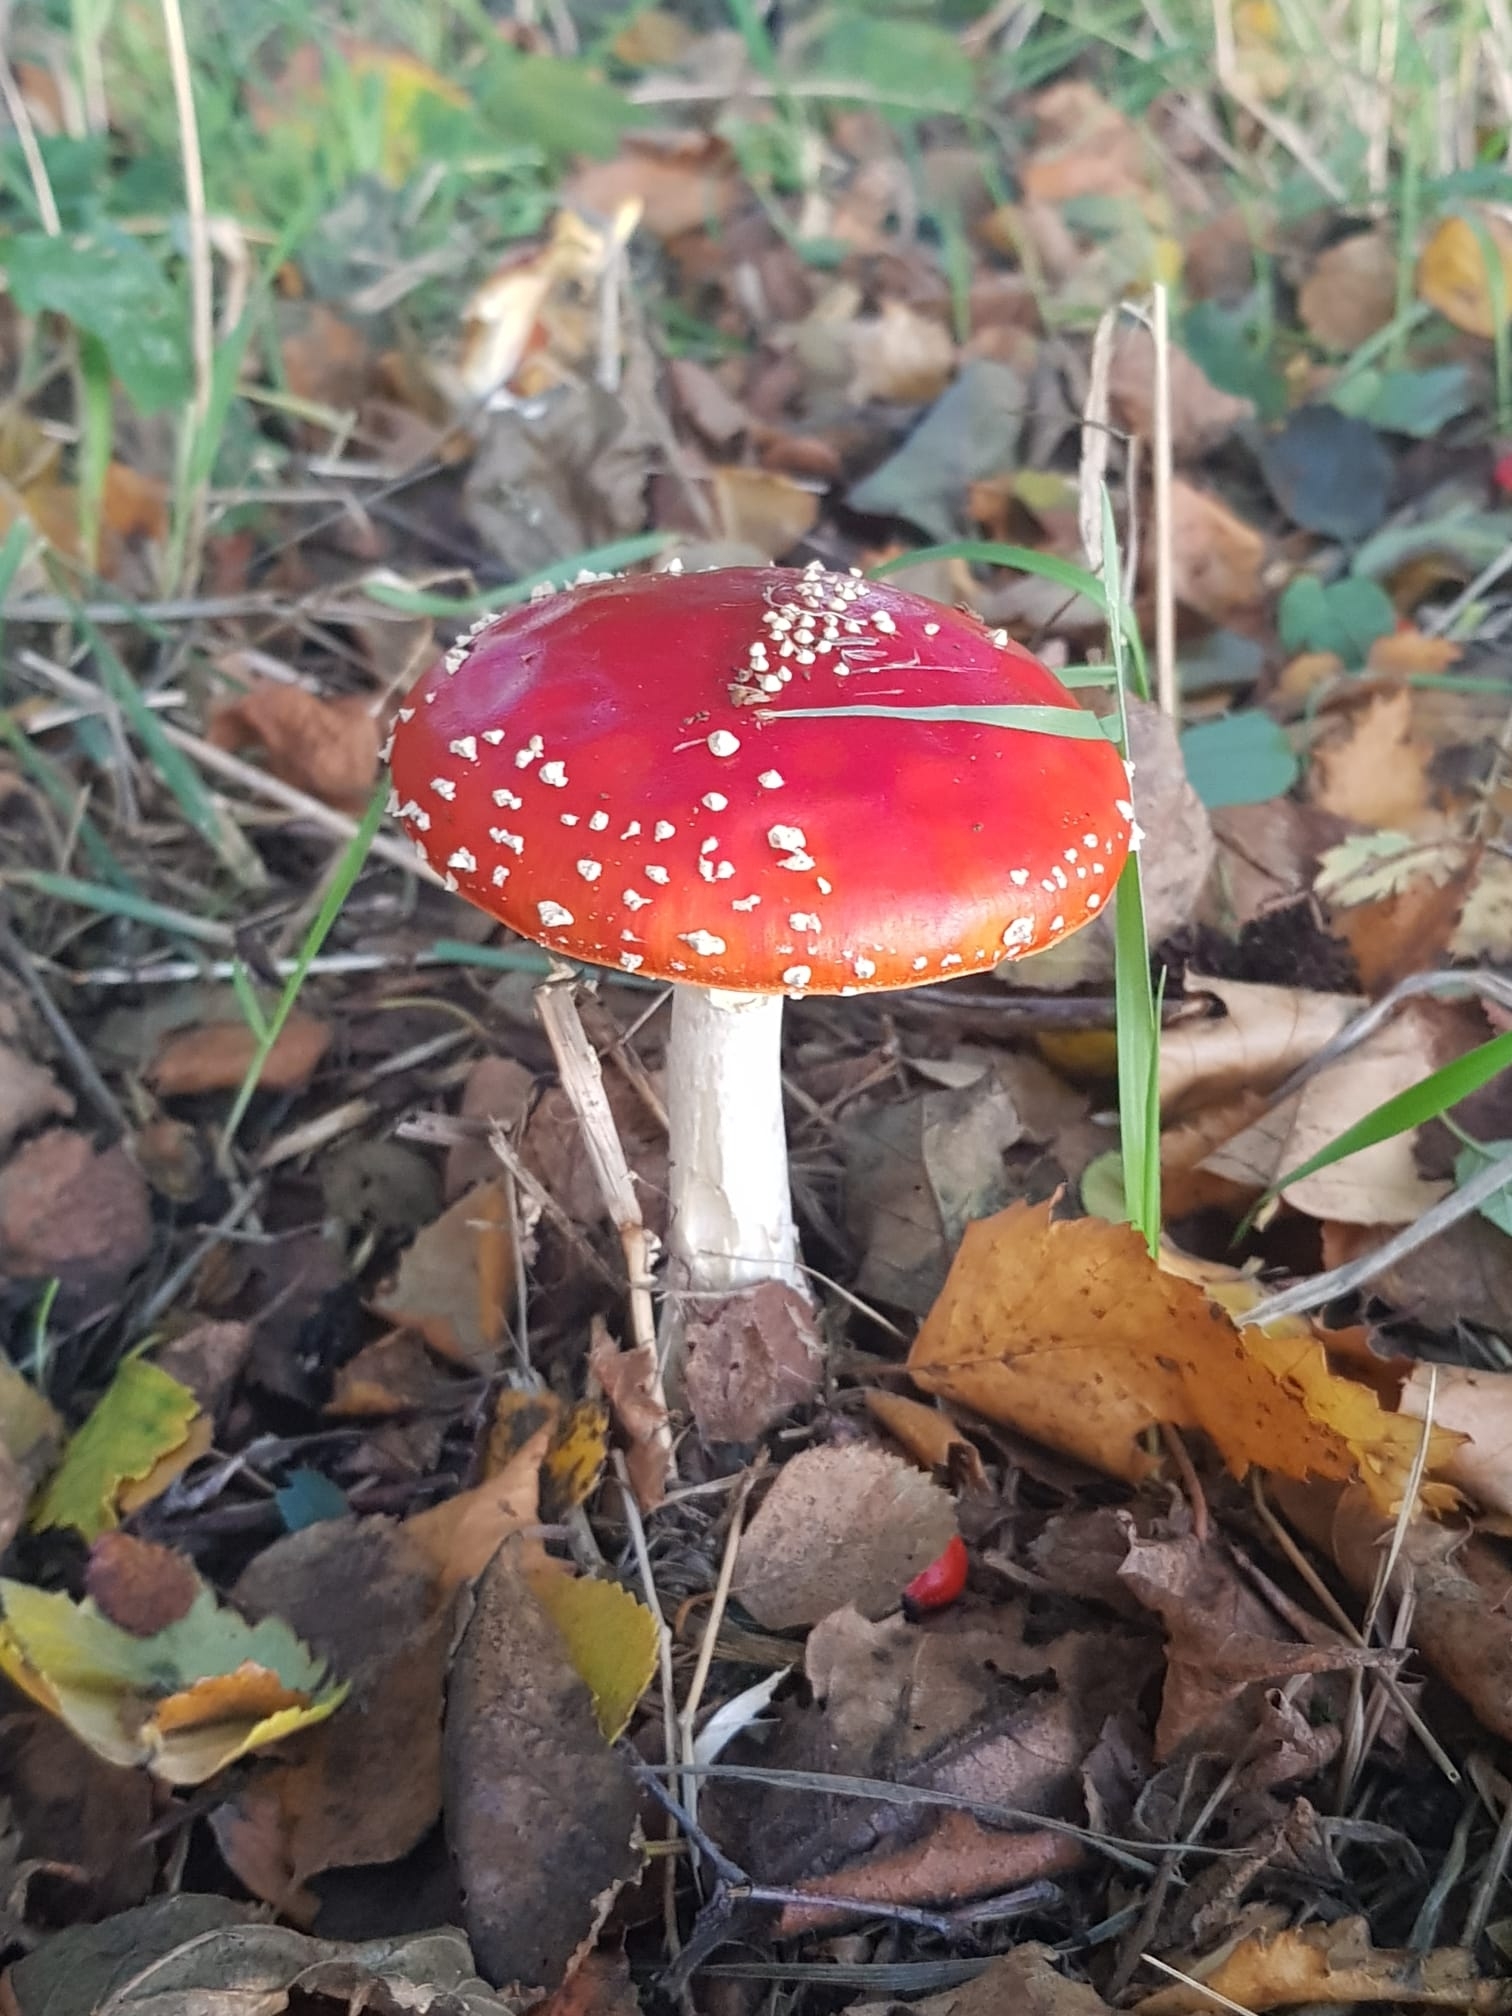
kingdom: Fungi
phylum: Basidiomycota
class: Agaricomycetes
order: Agaricales
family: Amanitaceae
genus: Amanita
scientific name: Amanita muscaria
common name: Fly agaric
